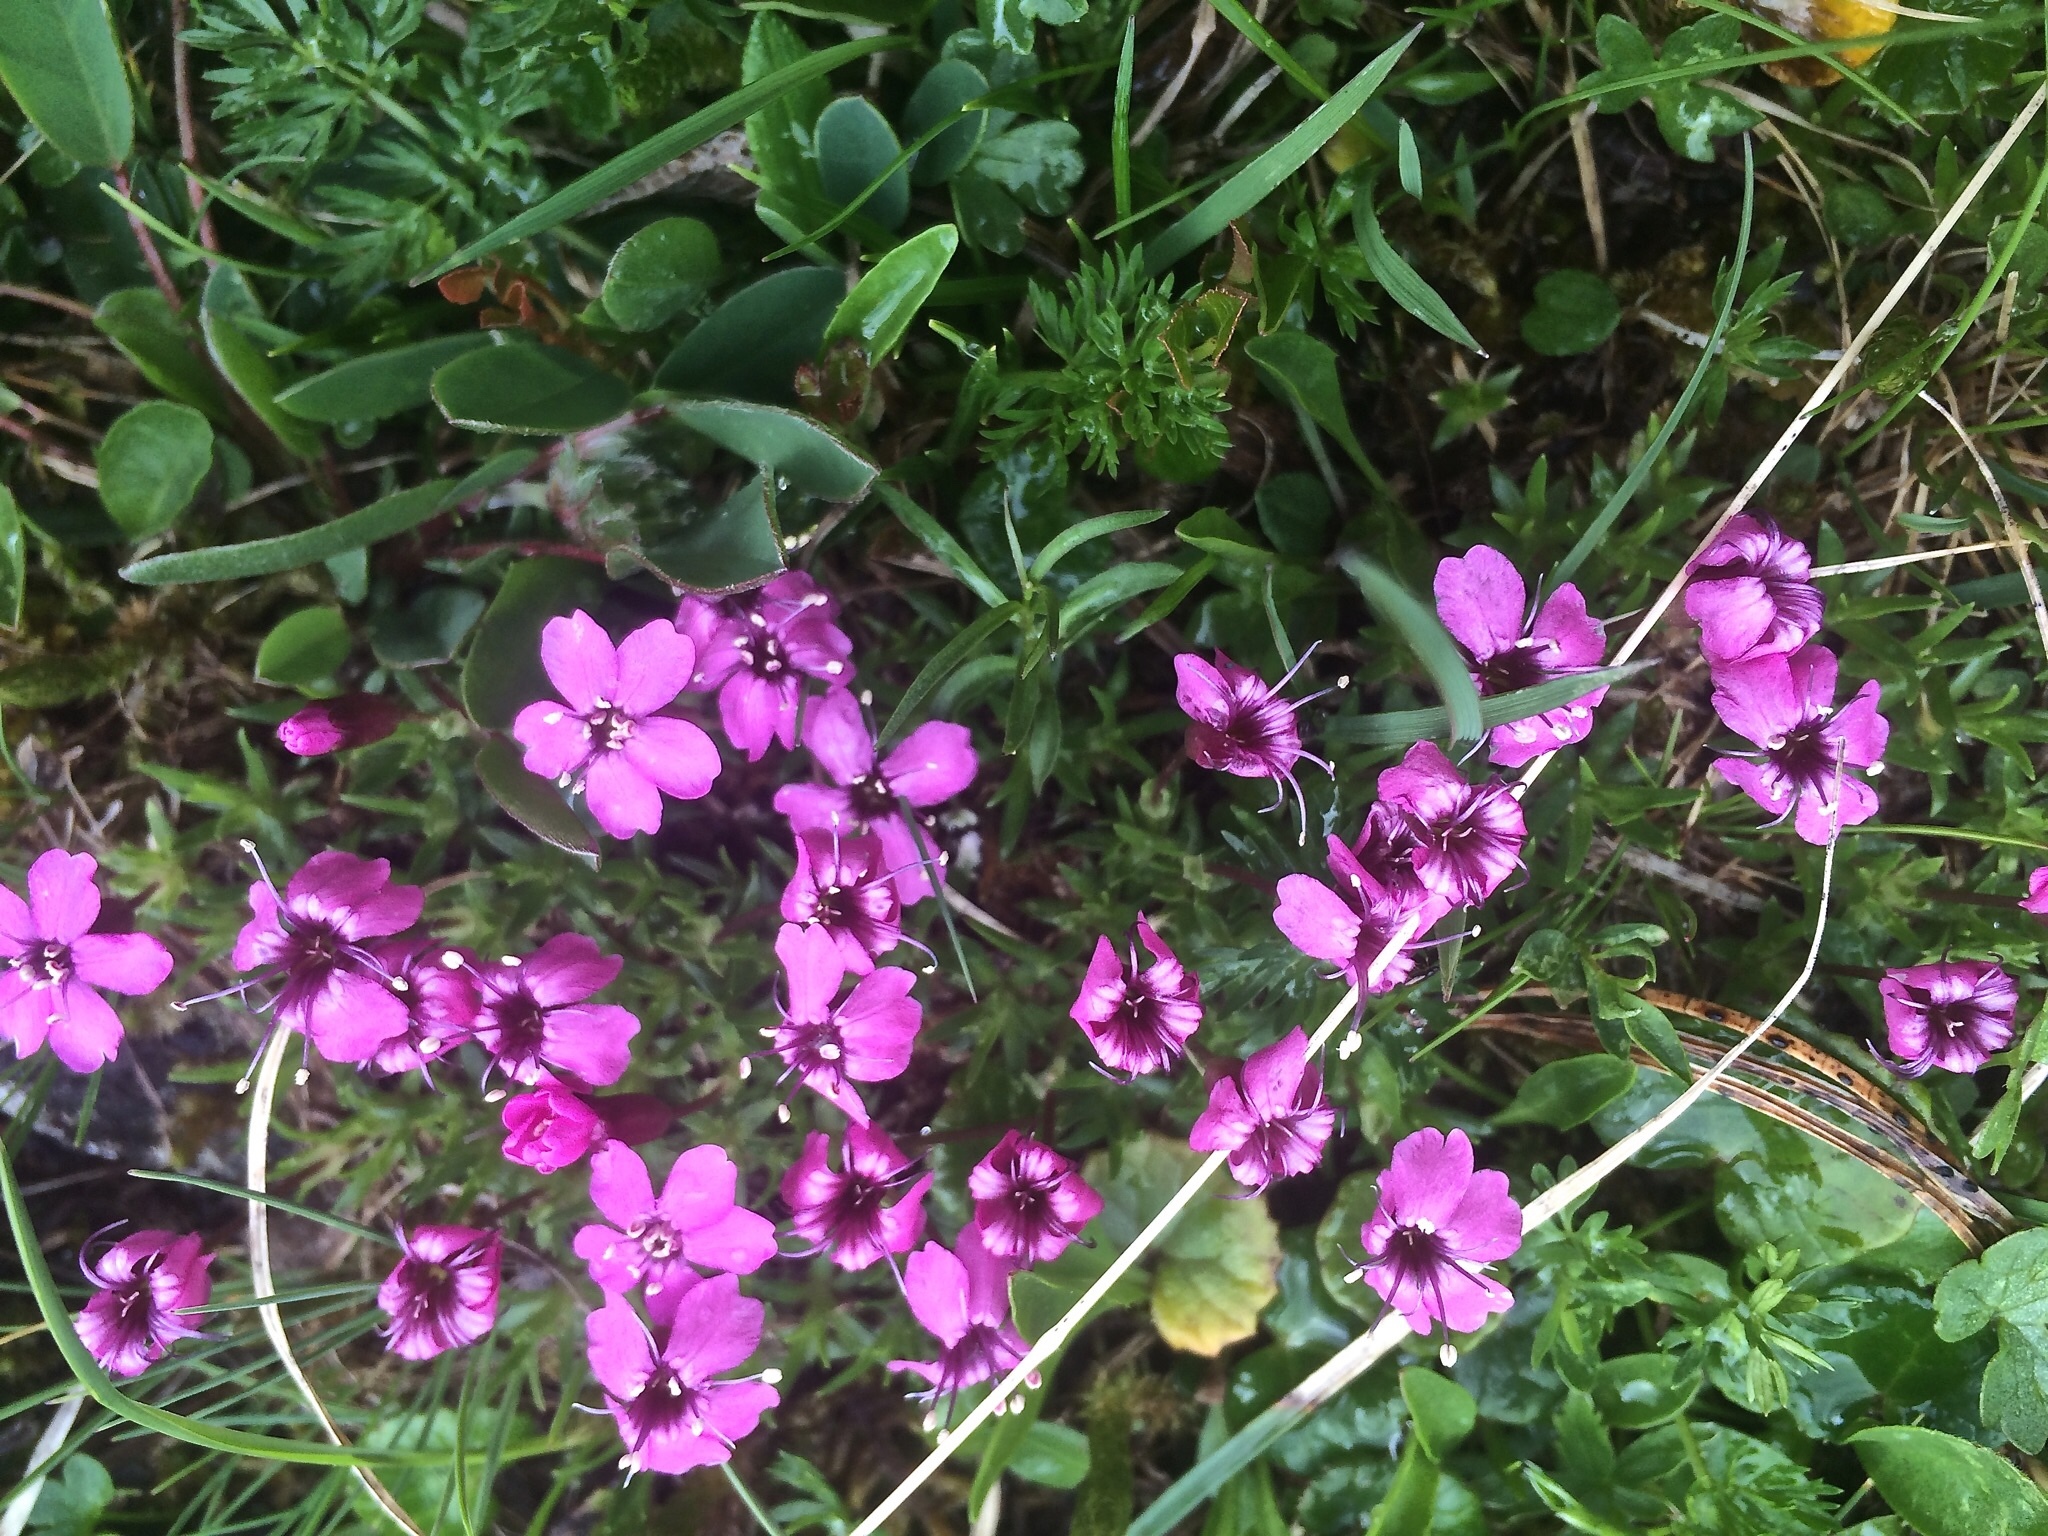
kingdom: Plantae
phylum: Tracheophyta
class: Magnoliopsida
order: Caryophyllales
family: Caryophyllaceae
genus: Silene
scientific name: Silene acaulis
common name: Moss campion
